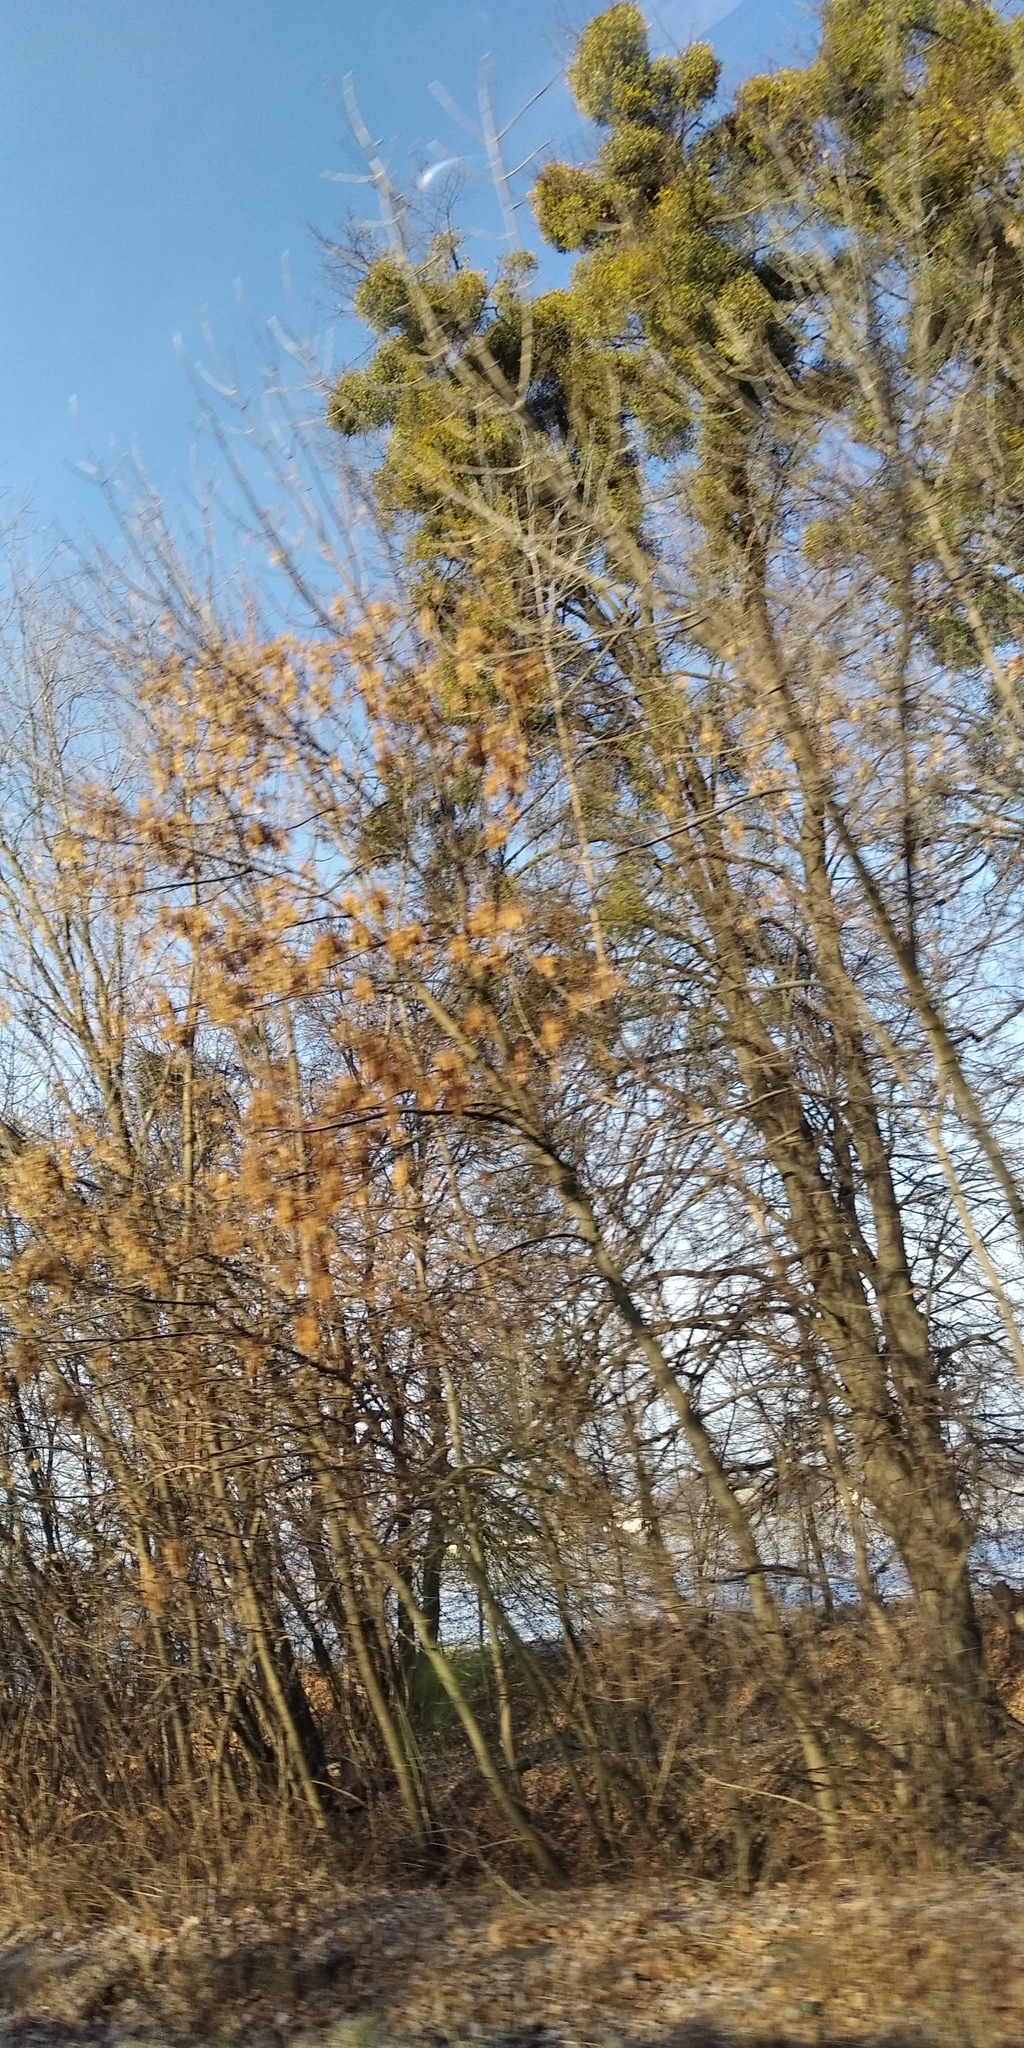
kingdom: Plantae
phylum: Tracheophyta
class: Magnoliopsida
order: Santalales
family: Viscaceae
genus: Viscum
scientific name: Viscum album
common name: Mistletoe
